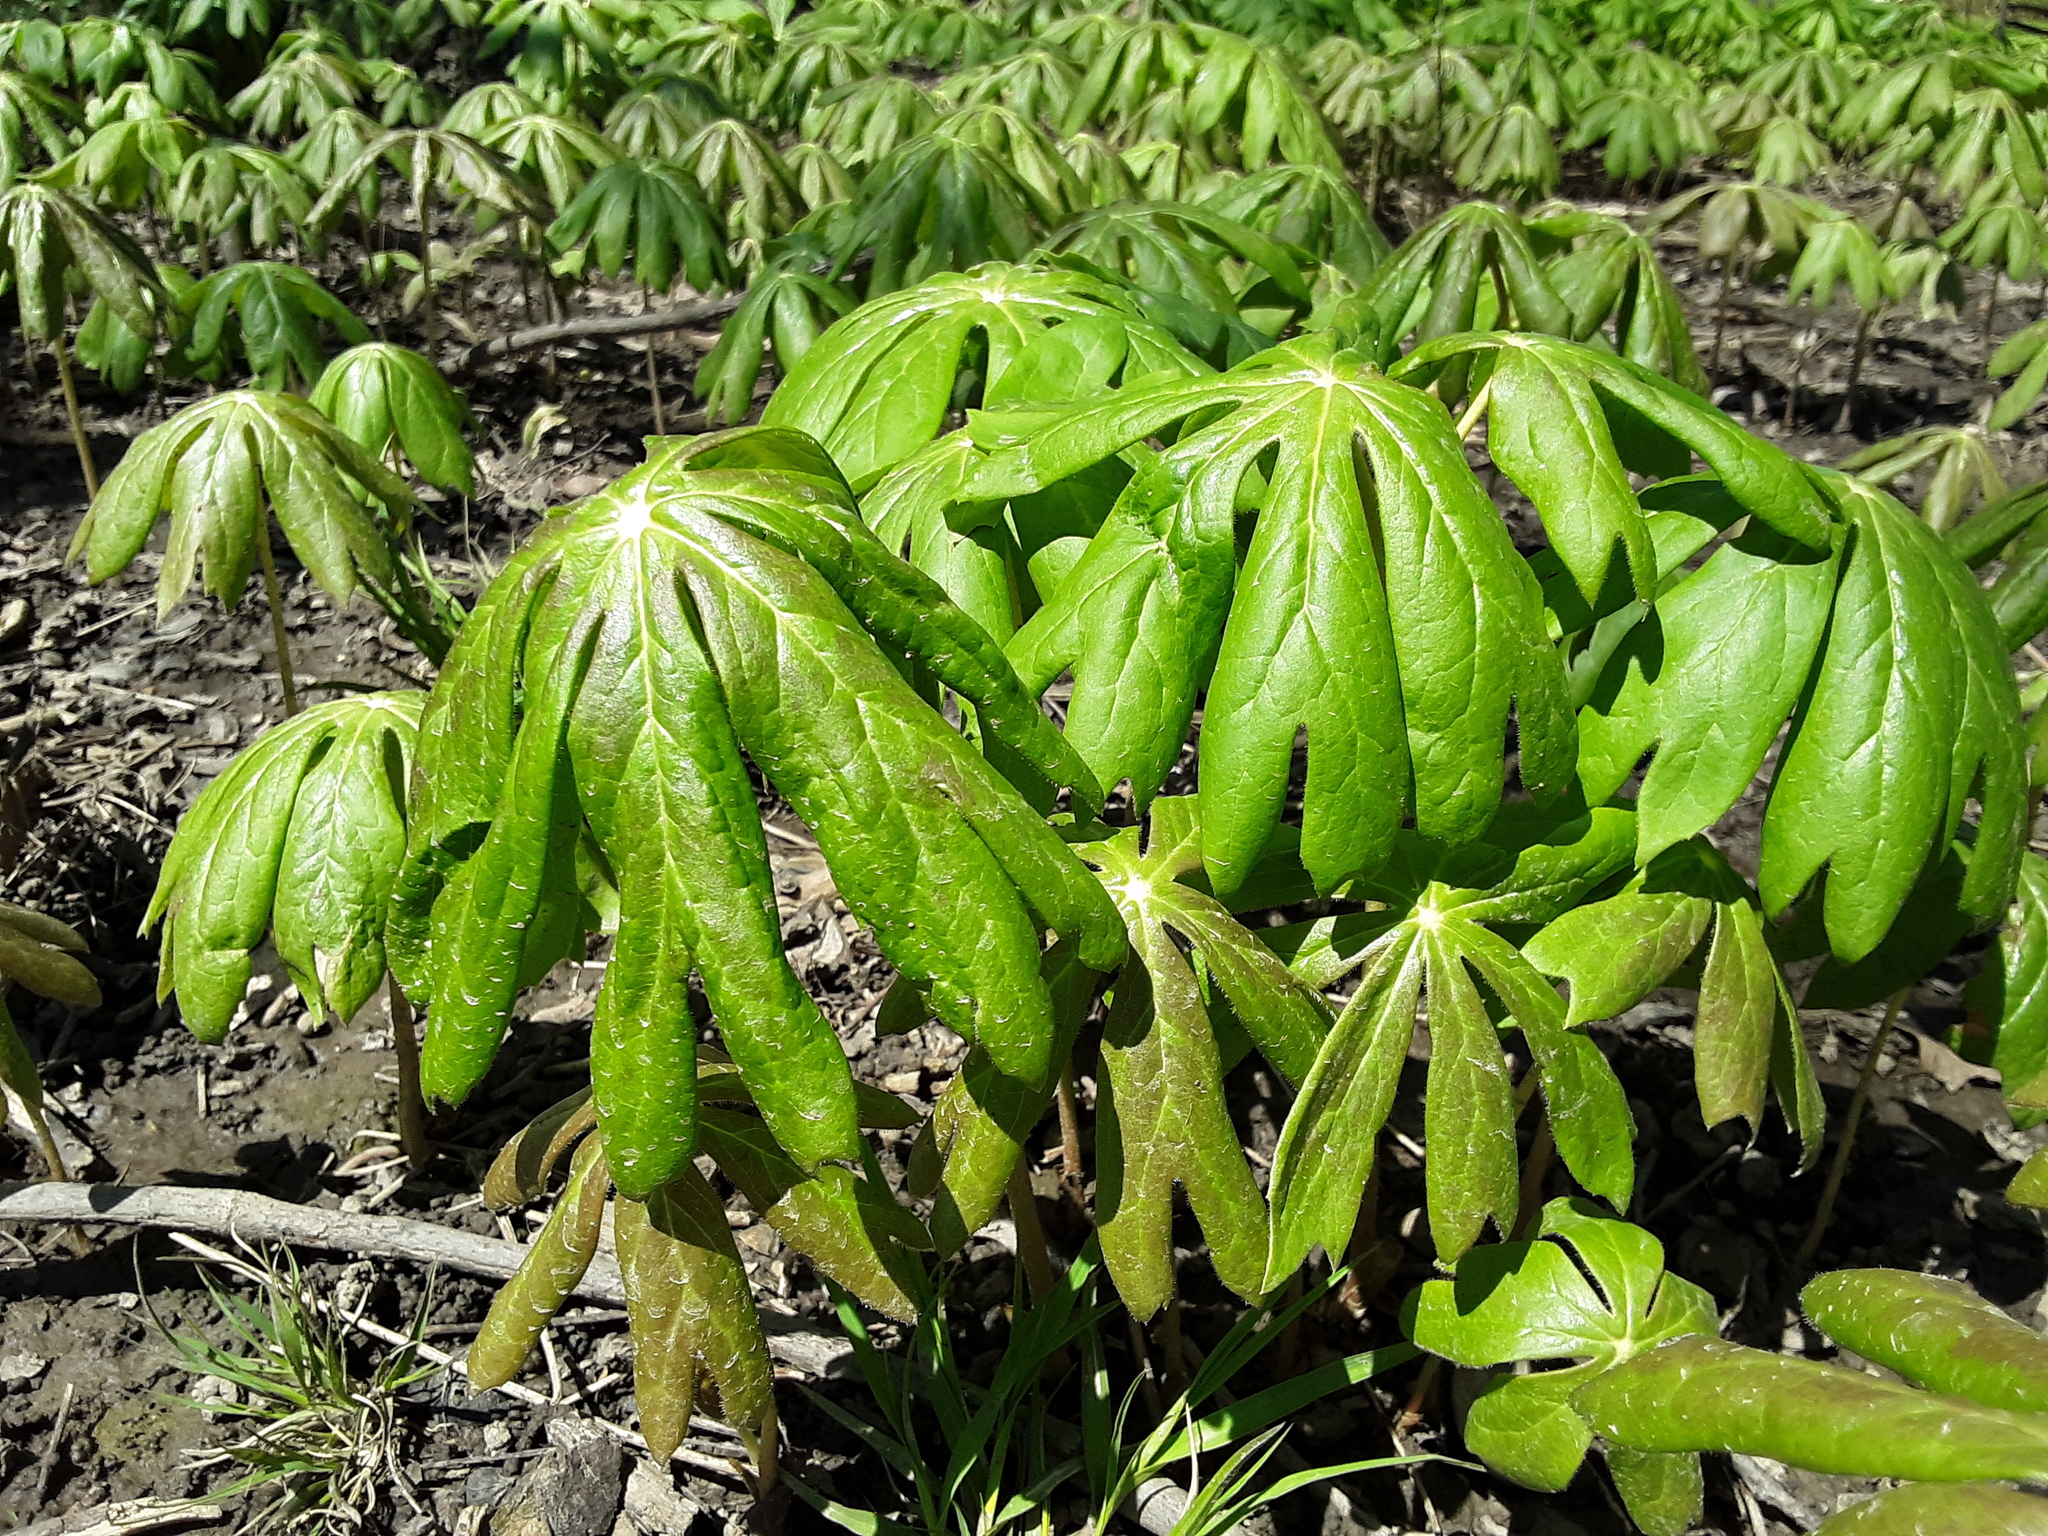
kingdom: Plantae
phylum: Tracheophyta
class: Magnoliopsida
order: Ranunculales
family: Berberidaceae
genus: Podophyllum
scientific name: Podophyllum peltatum
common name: Wild mandrake
